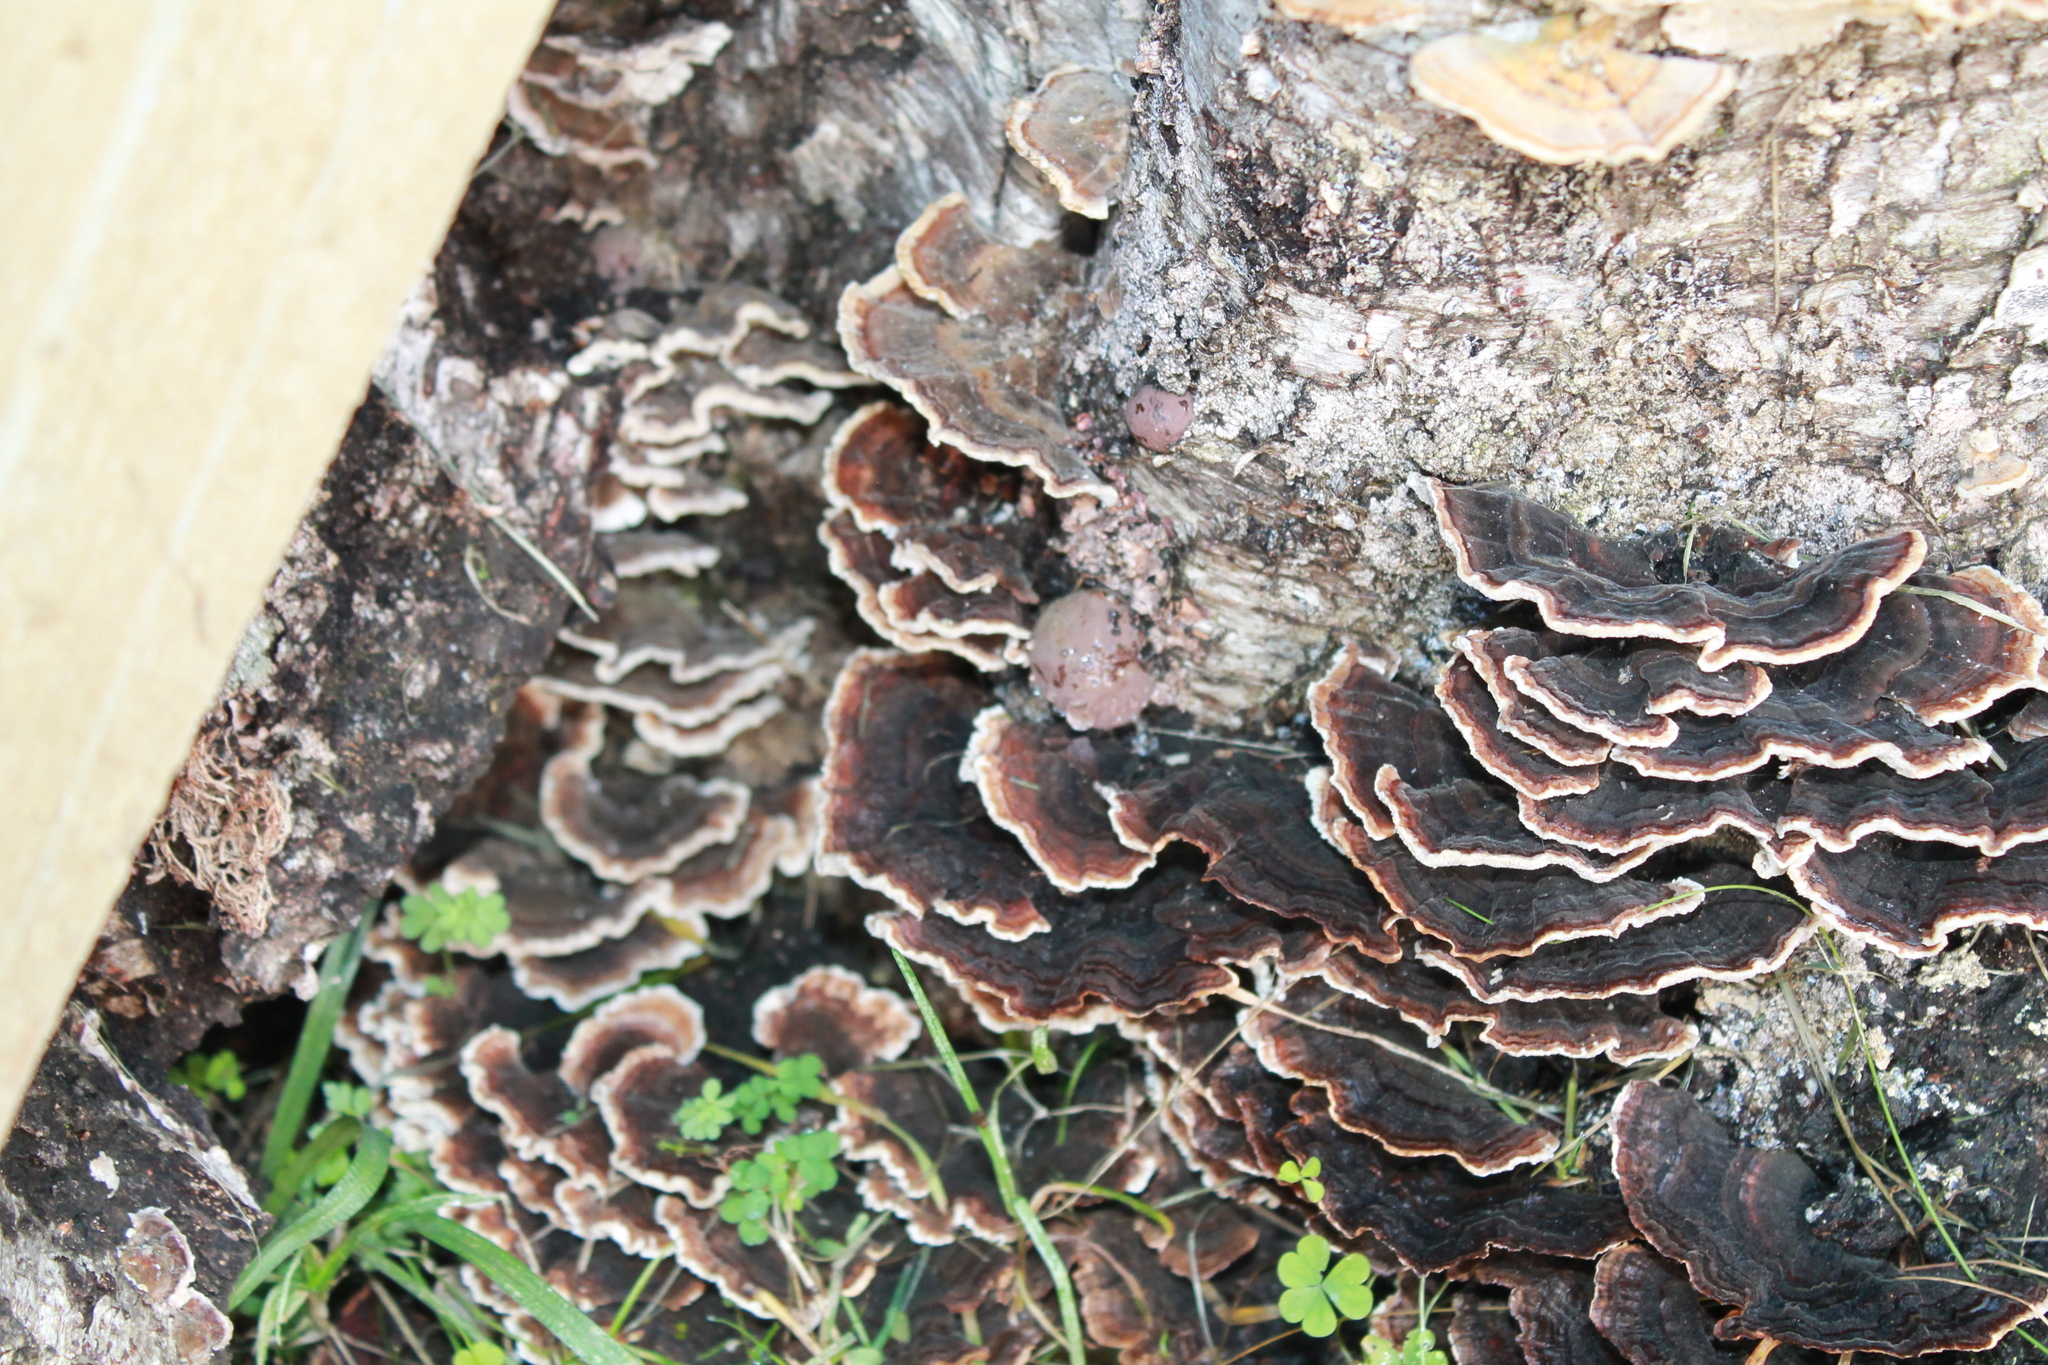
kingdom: Fungi
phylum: Basidiomycota
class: Agaricomycetes
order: Polyporales
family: Polyporaceae
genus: Trametes
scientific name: Trametes versicolor
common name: Turkeytail
